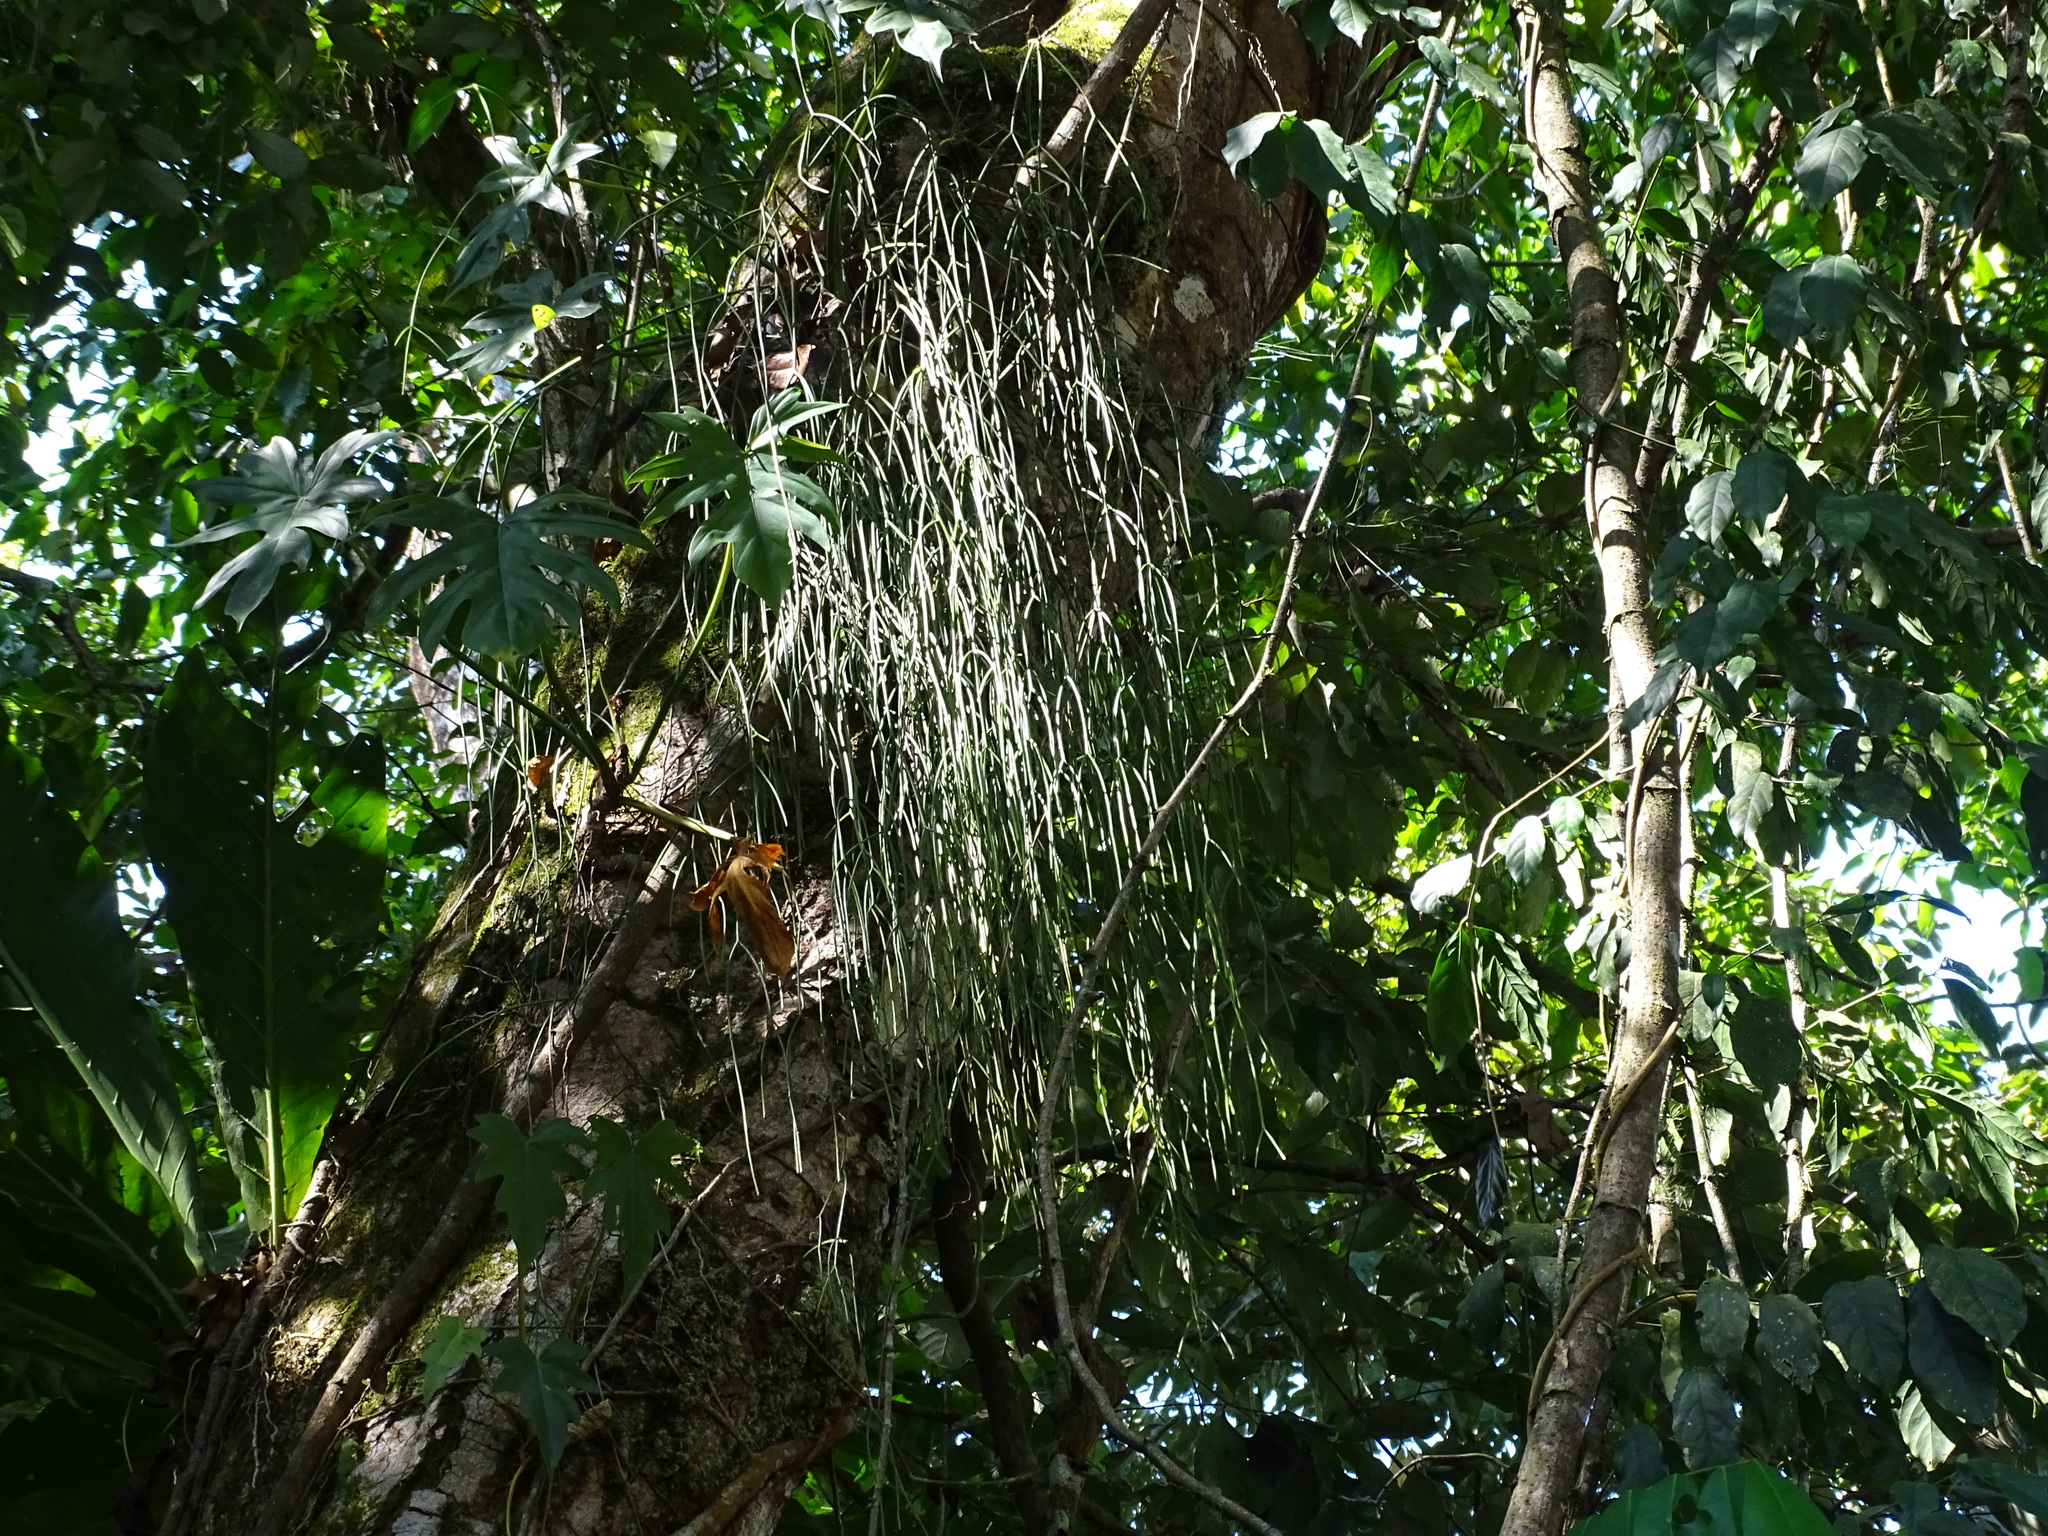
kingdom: Plantae
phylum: Tracheophyta
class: Magnoliopsida
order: Caryophyllales
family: Cactaceae
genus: Rhipsalis
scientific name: Rhipsalis baccifera
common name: Mistletoe cactus
